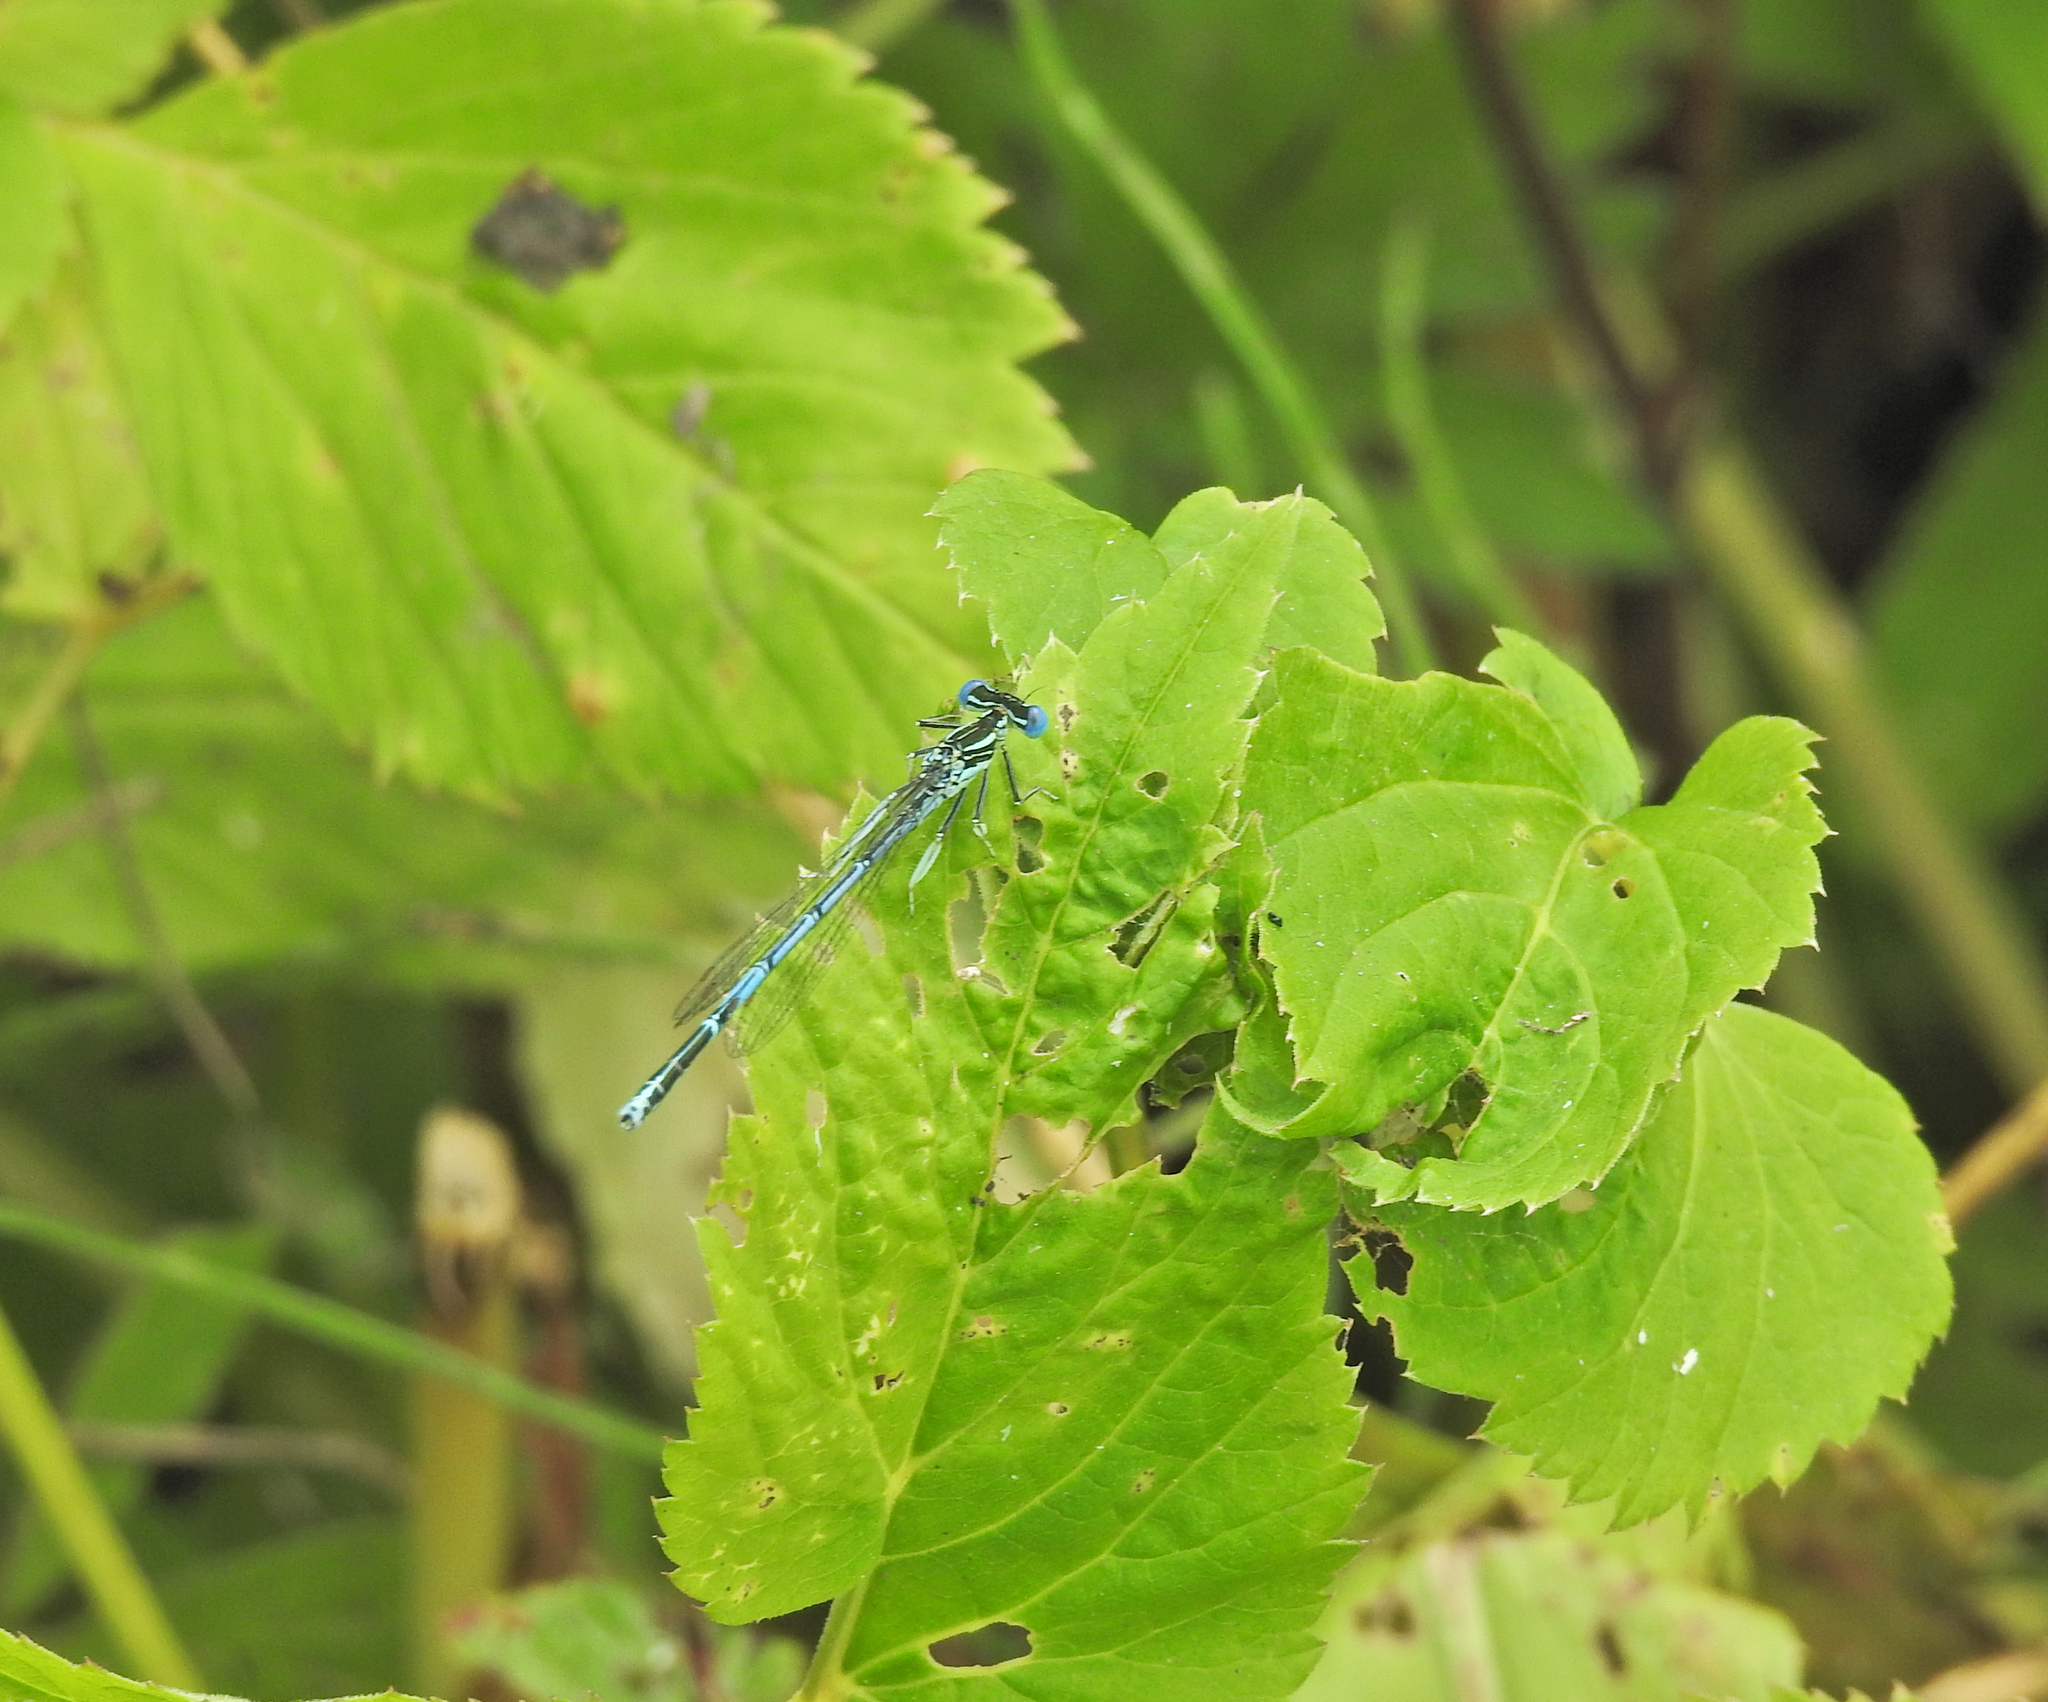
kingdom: Animalia
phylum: Arthropoda
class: Insecta
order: Odonata
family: Platycnemididae
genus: Platycnemis
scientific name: Platycnemis pennipes
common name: White-legged damselfly
